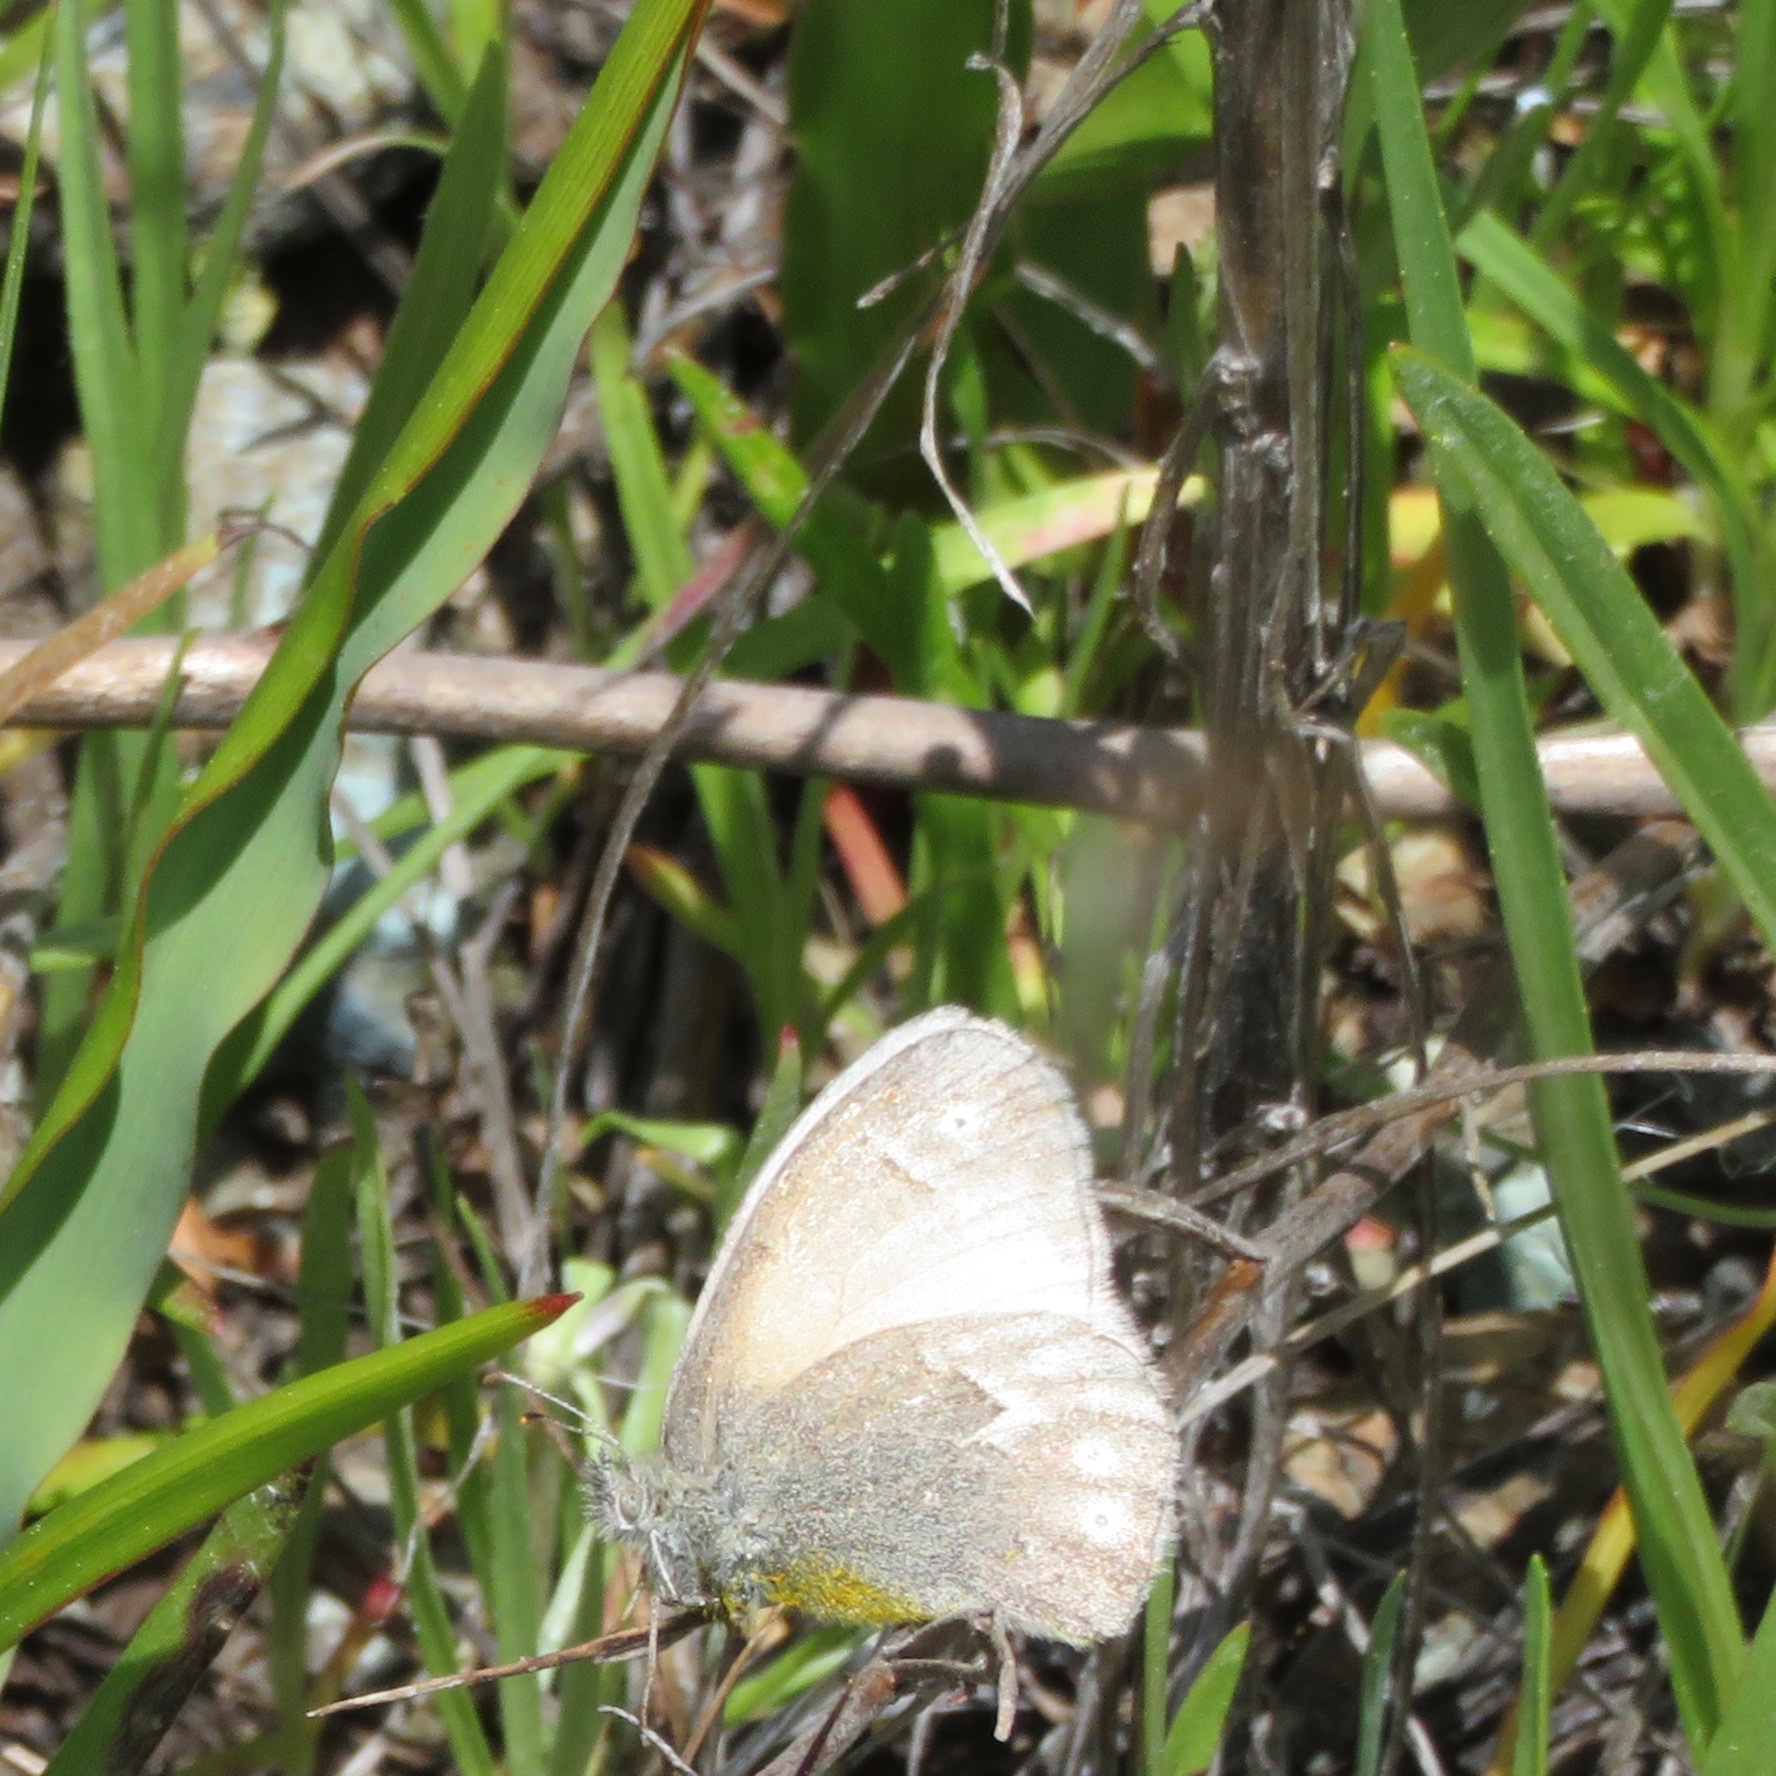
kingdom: Animalia
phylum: Arthropoda
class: Insecta
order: Lepidoptera
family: Nymphalidae
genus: Coenonympha
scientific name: Coenonympha california
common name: Common ringlet
